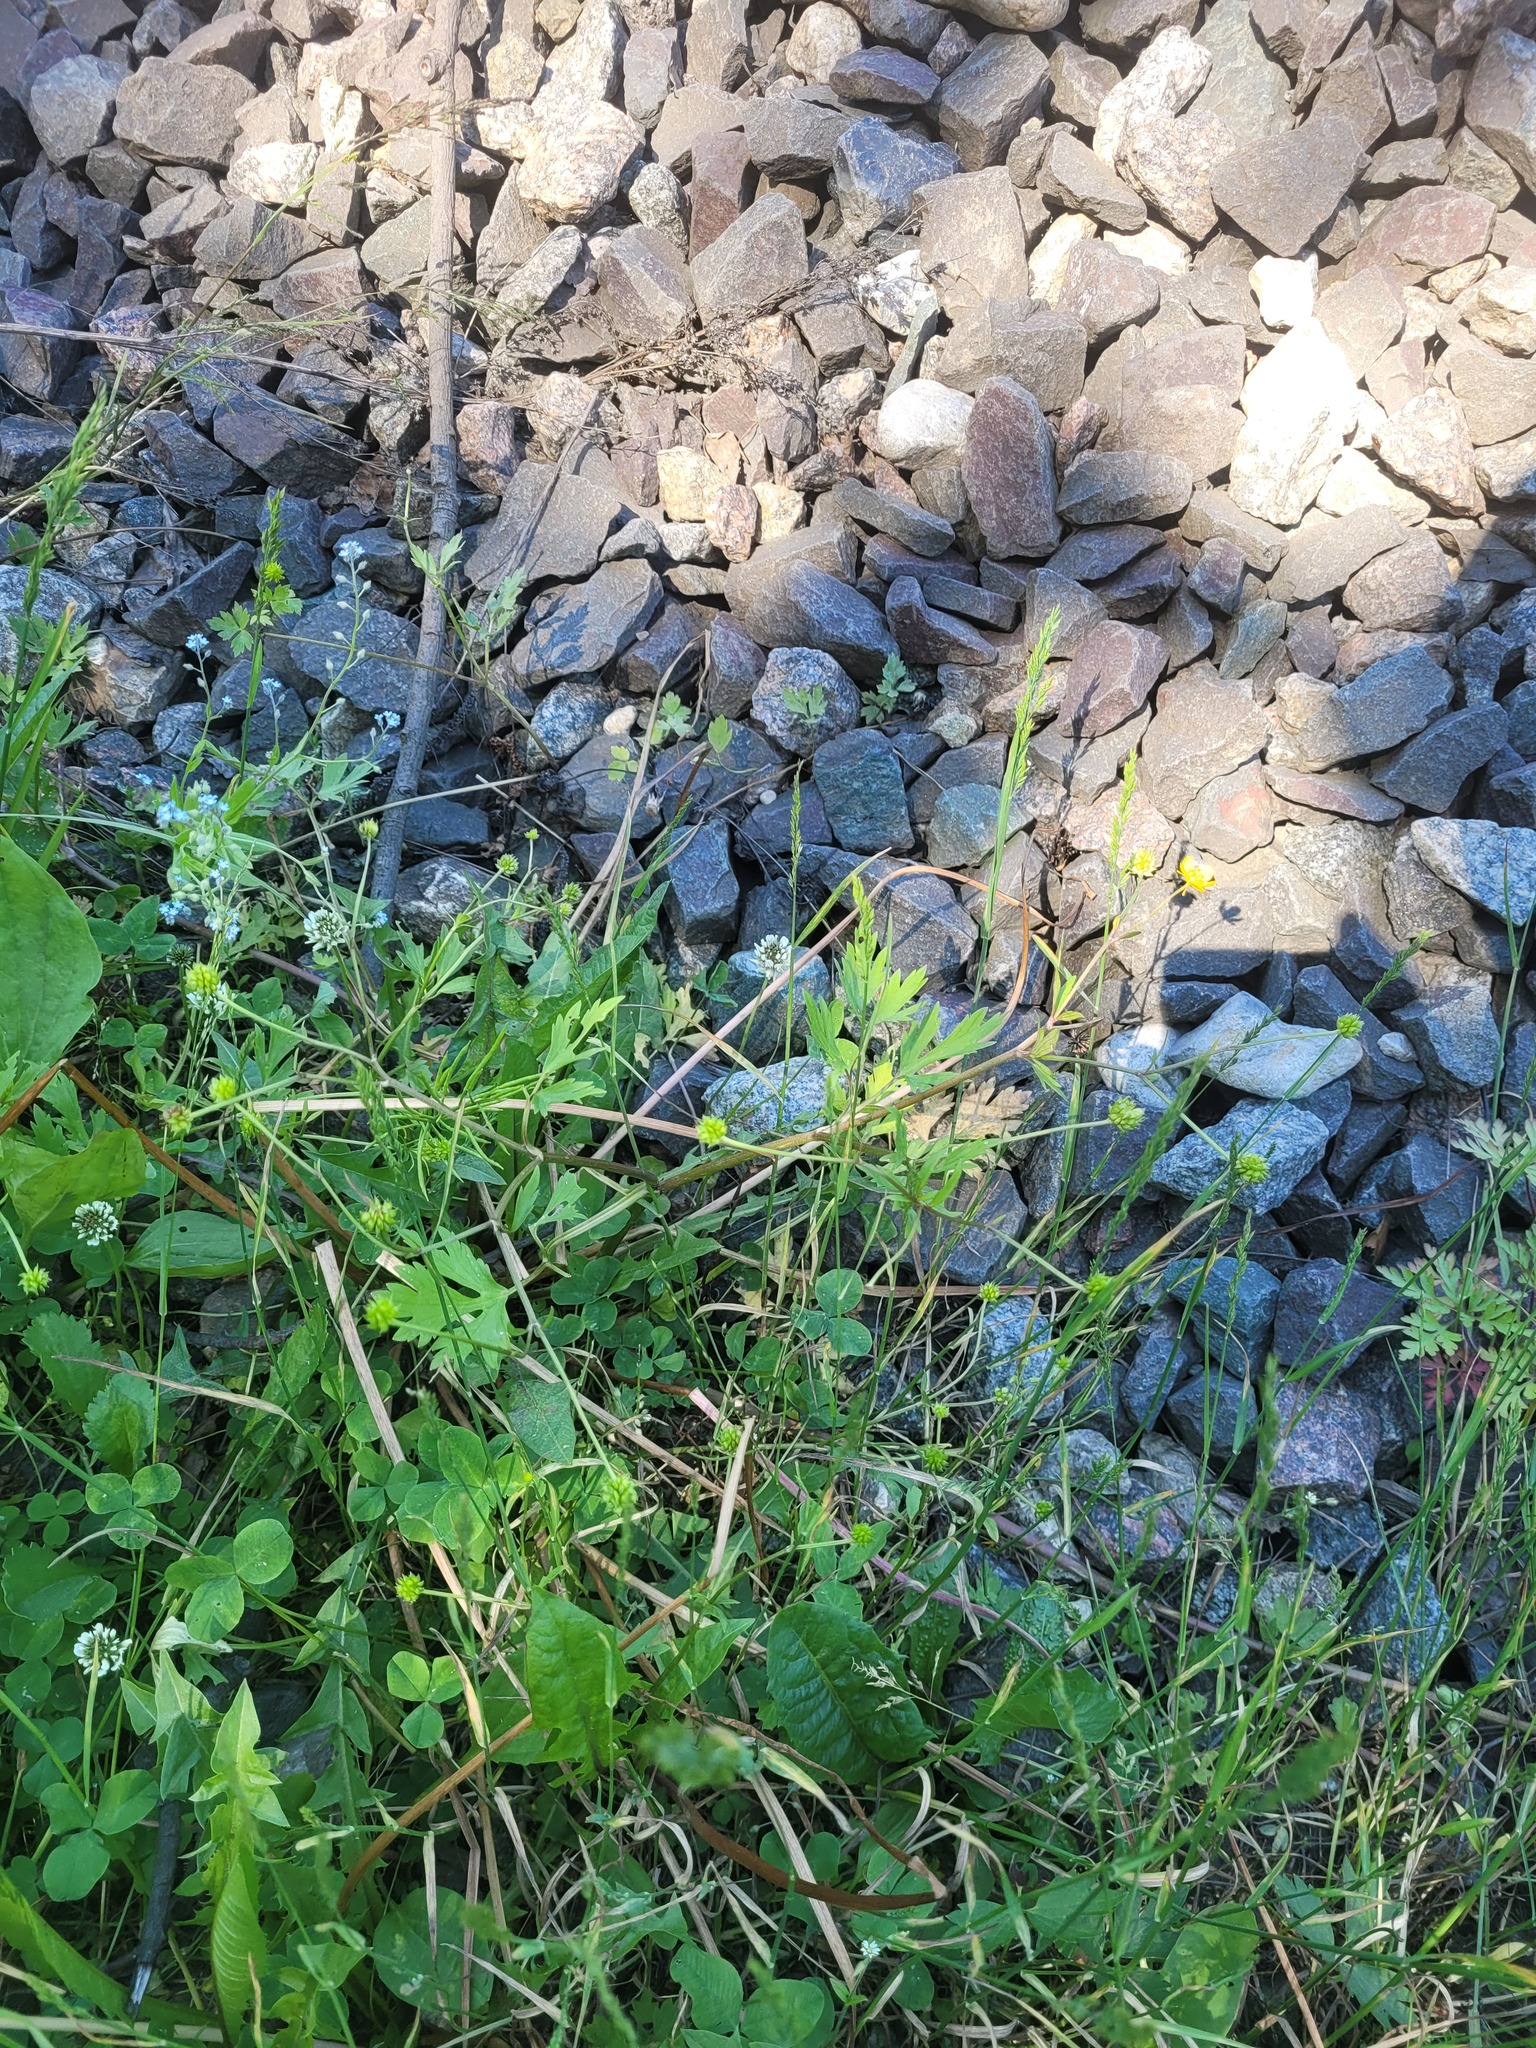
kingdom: Plantae
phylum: Tracheophyta
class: Magnoliopsida
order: Ranunculales
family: Ranunculaceae
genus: Ranunculus
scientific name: Ranunculus repens
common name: Creeping buttercup
